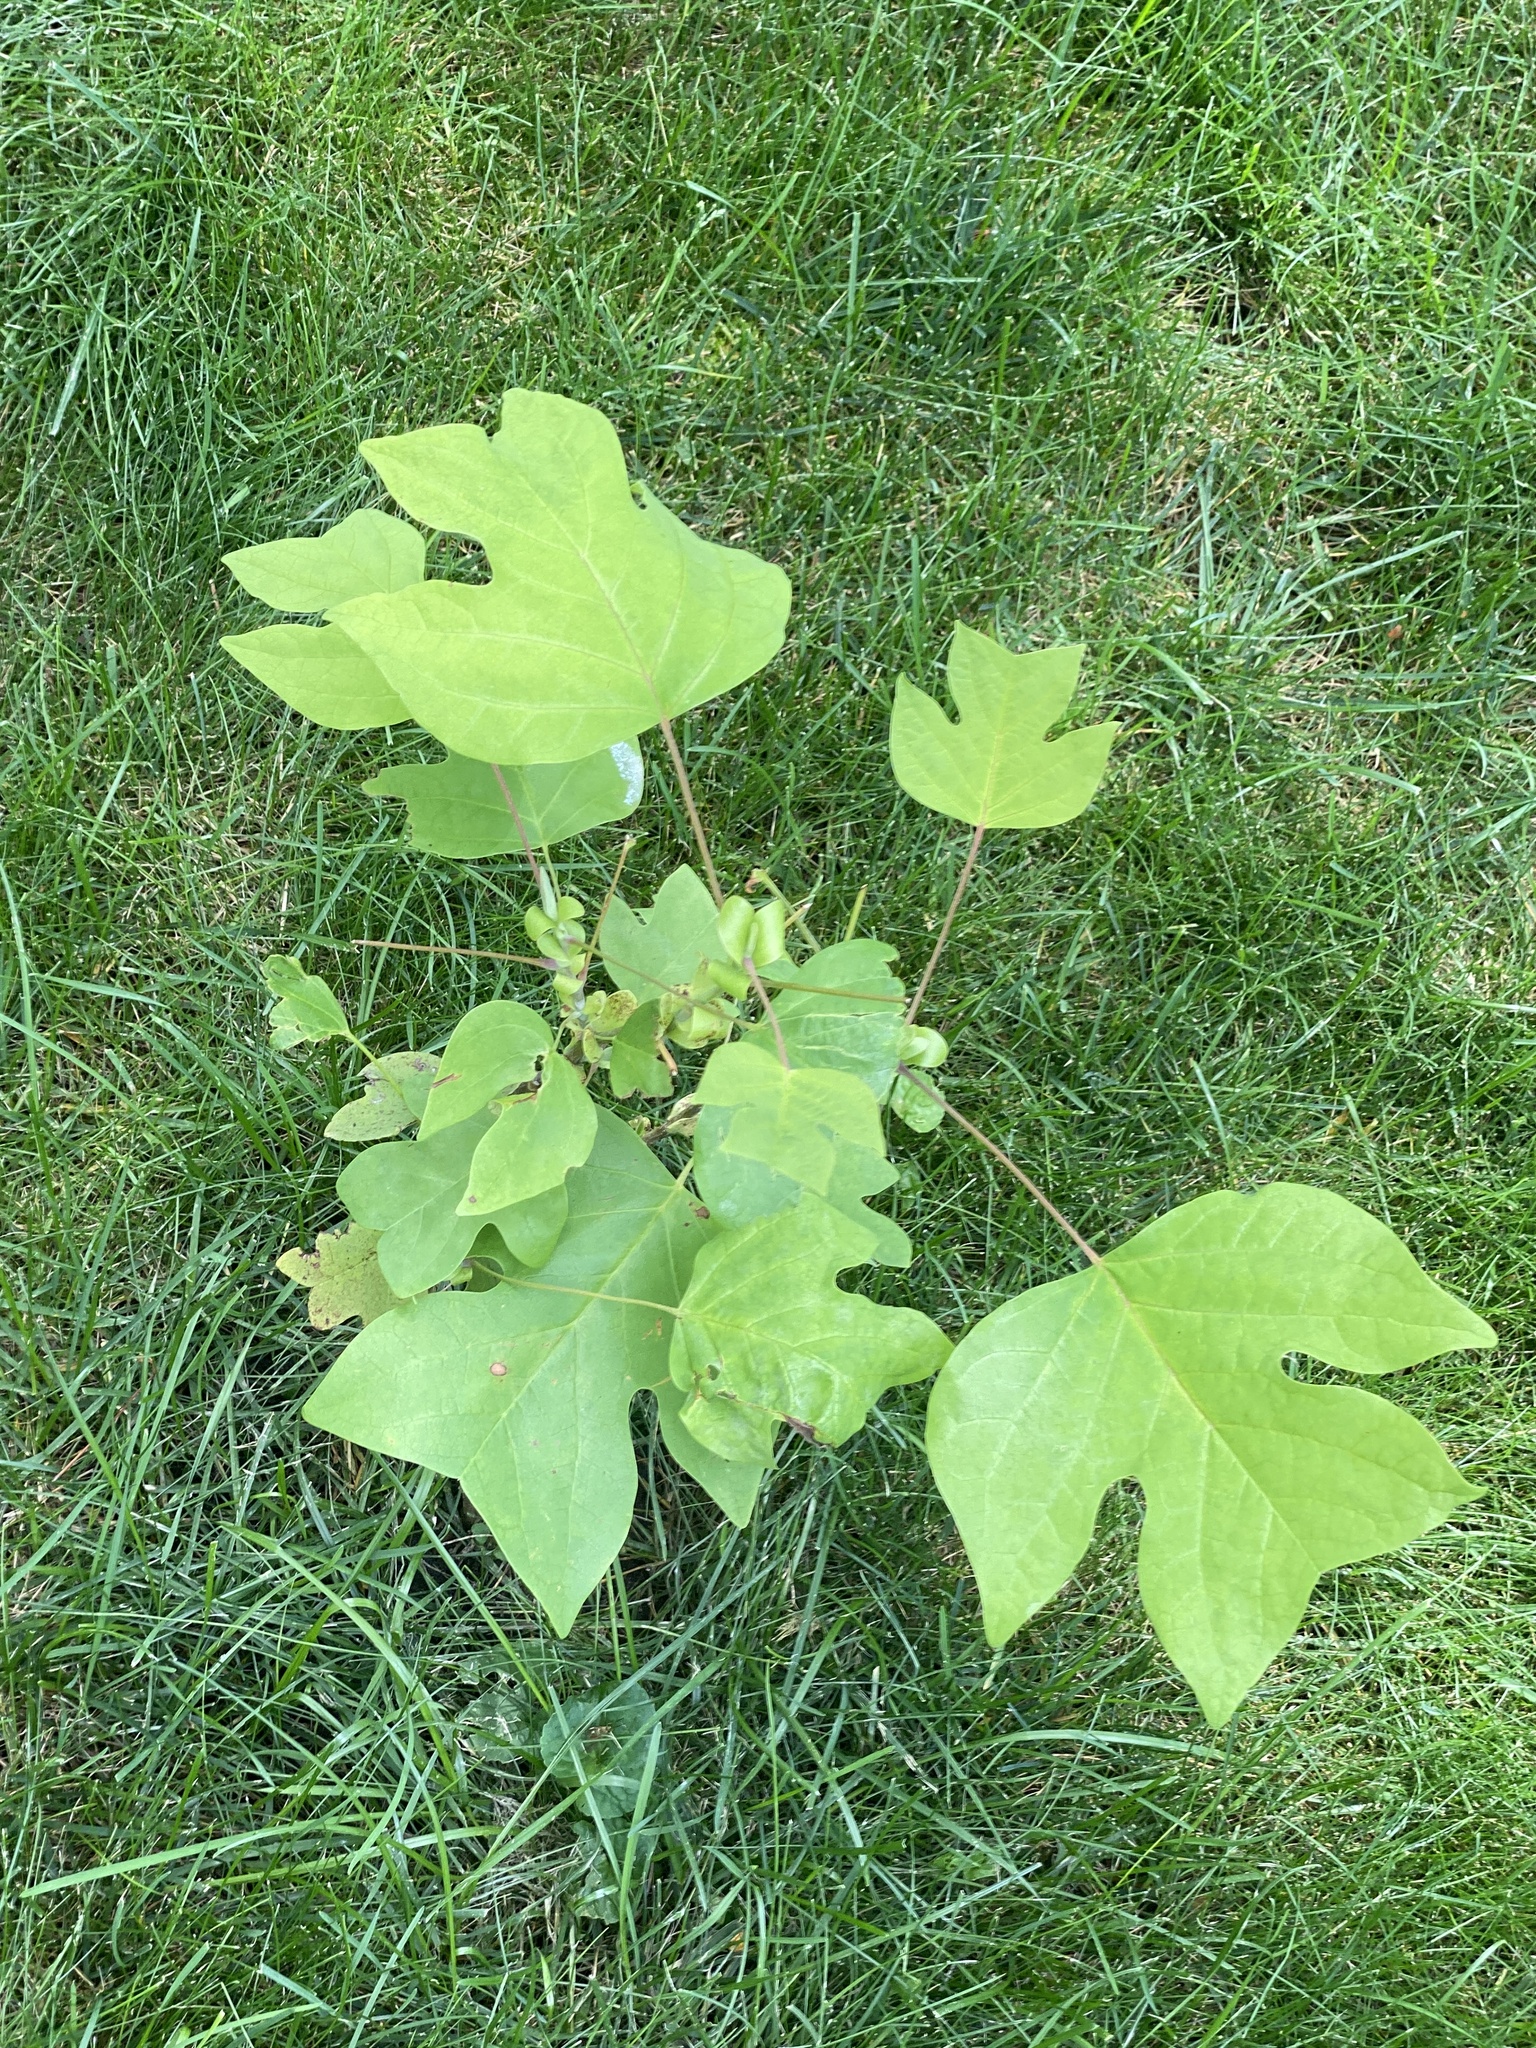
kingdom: Plantae
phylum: Tracheophyta
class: Magnoliopsida
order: Magnoliales
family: Magnoliaceae
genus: Liriodendron
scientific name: Liriodendron tulipifera
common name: Tulip tree
